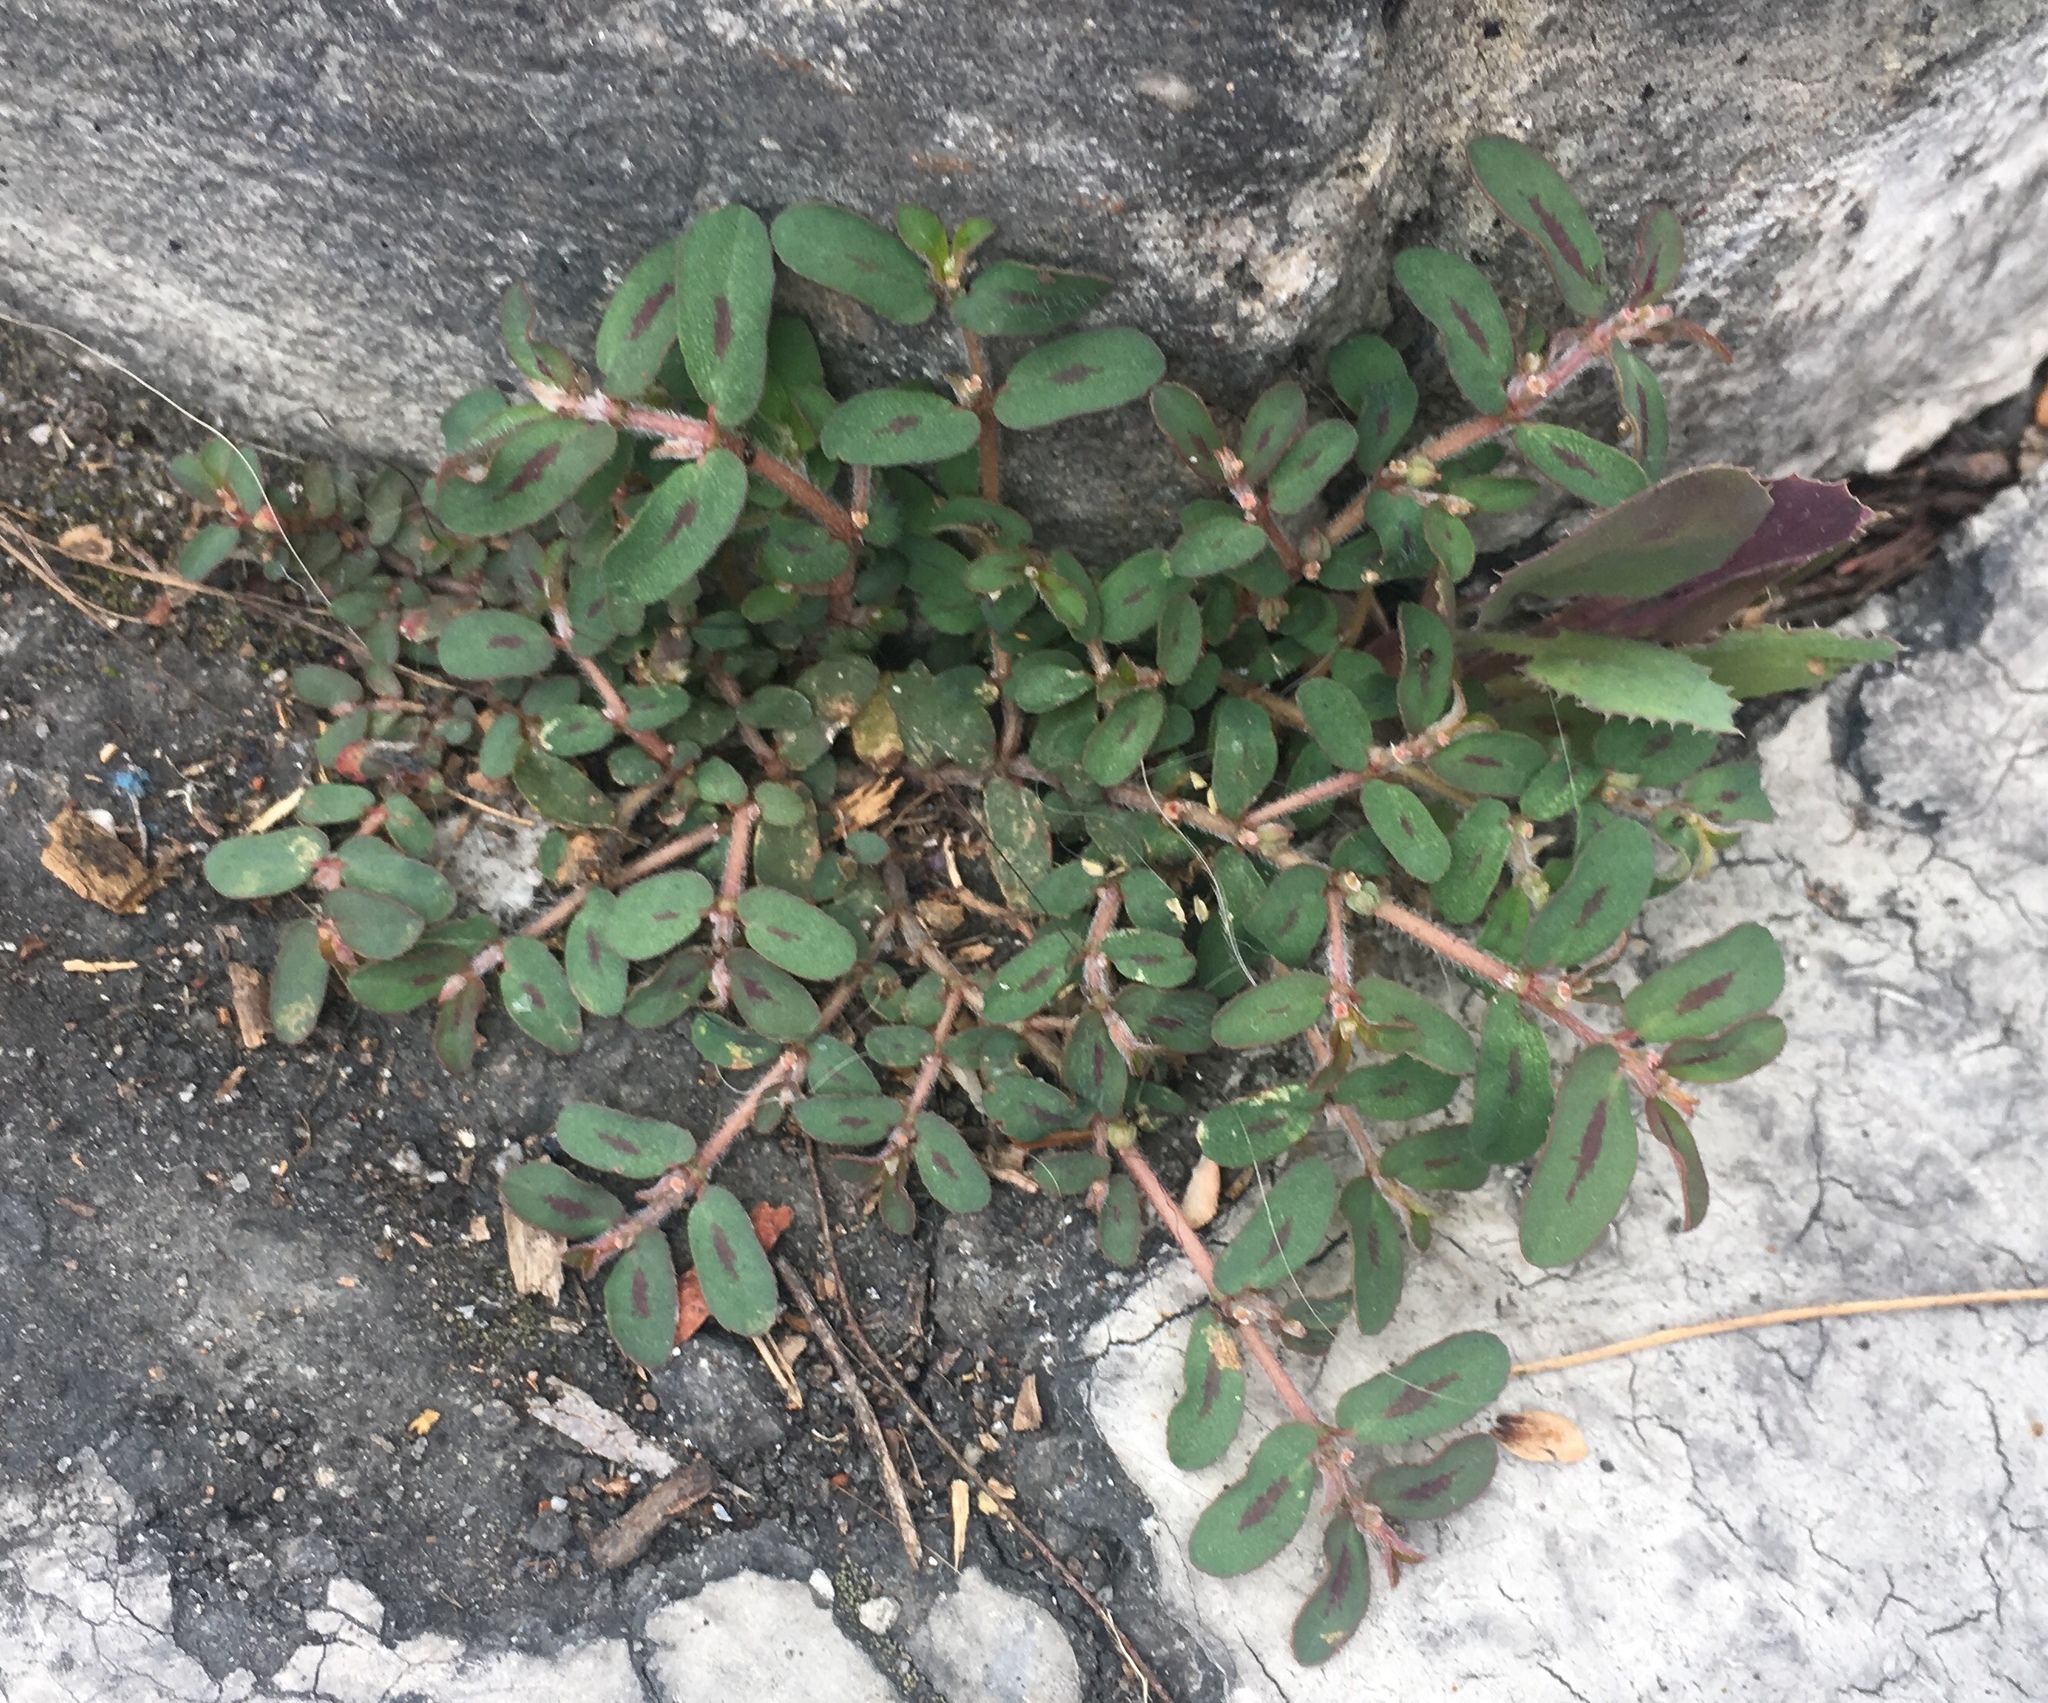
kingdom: Plantae
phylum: Tracheophyta
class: Magnoliopsida
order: Malpighiales
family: Euphorbiaceae
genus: Euphorbia
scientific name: Euphorbia maculata
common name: Spotted spurge
